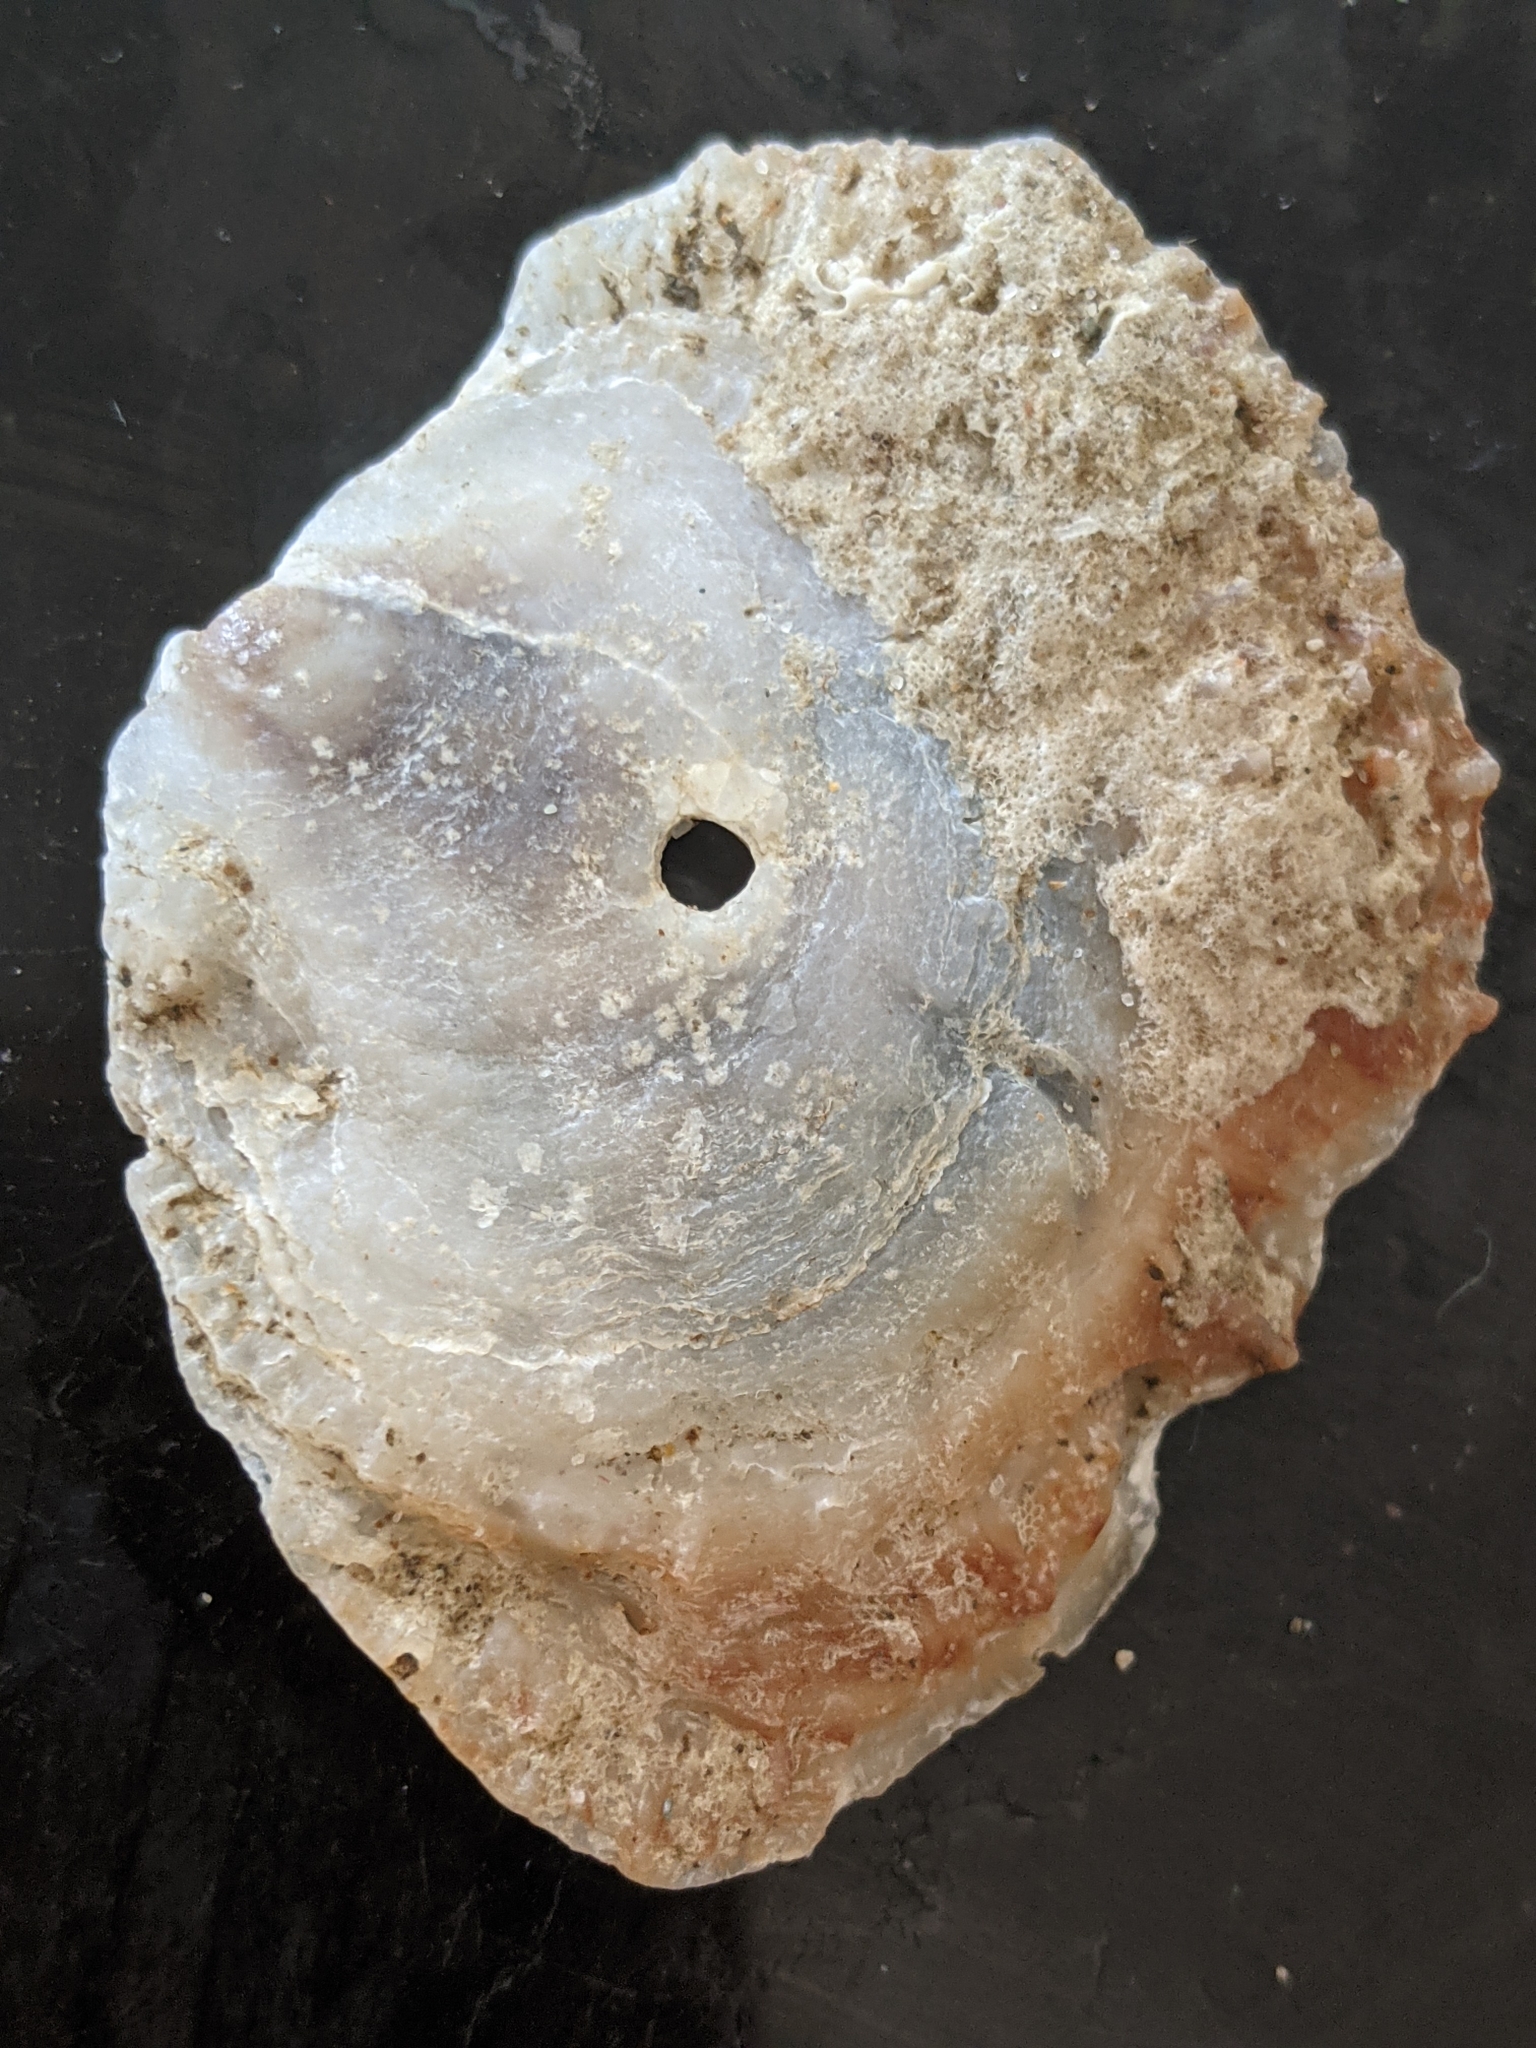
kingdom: Animalia
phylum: Mollusca
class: Bivalvia
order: Pectinida
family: Anomiidae
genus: Tedinia
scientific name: Tedinia pernoides
